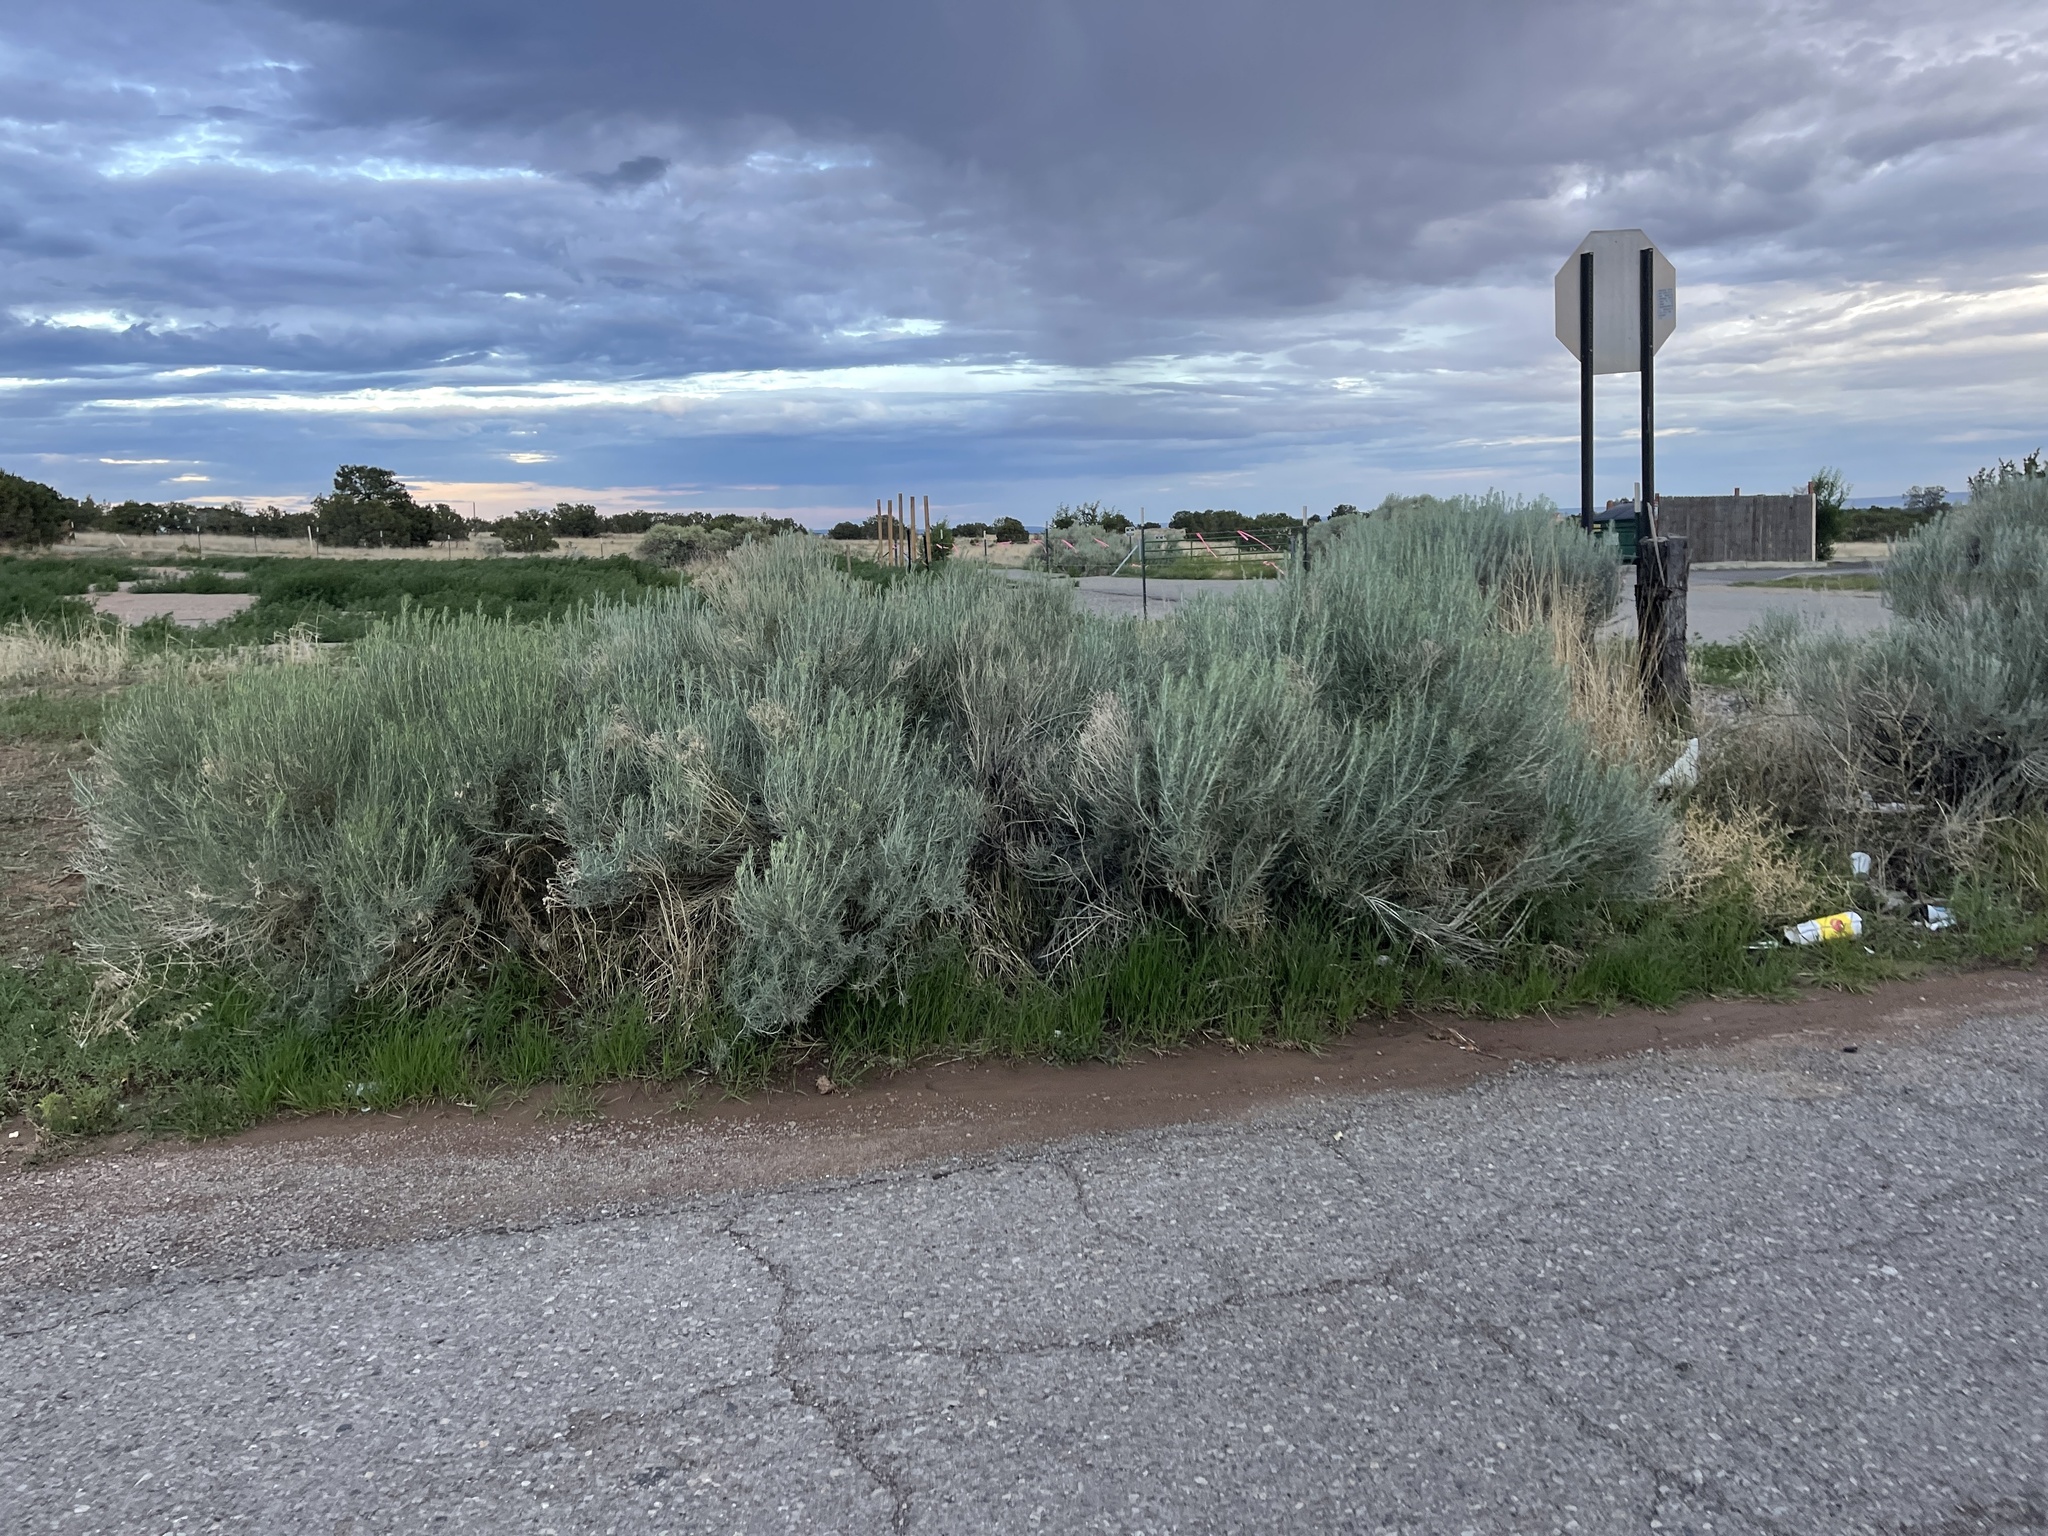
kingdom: Plantae
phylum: Tracheophyta
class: Magnoliopsida
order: Asterales
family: Asteraceae
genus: Ericameria
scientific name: Ericameria nauseosa
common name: Rubber rabbitbrush
